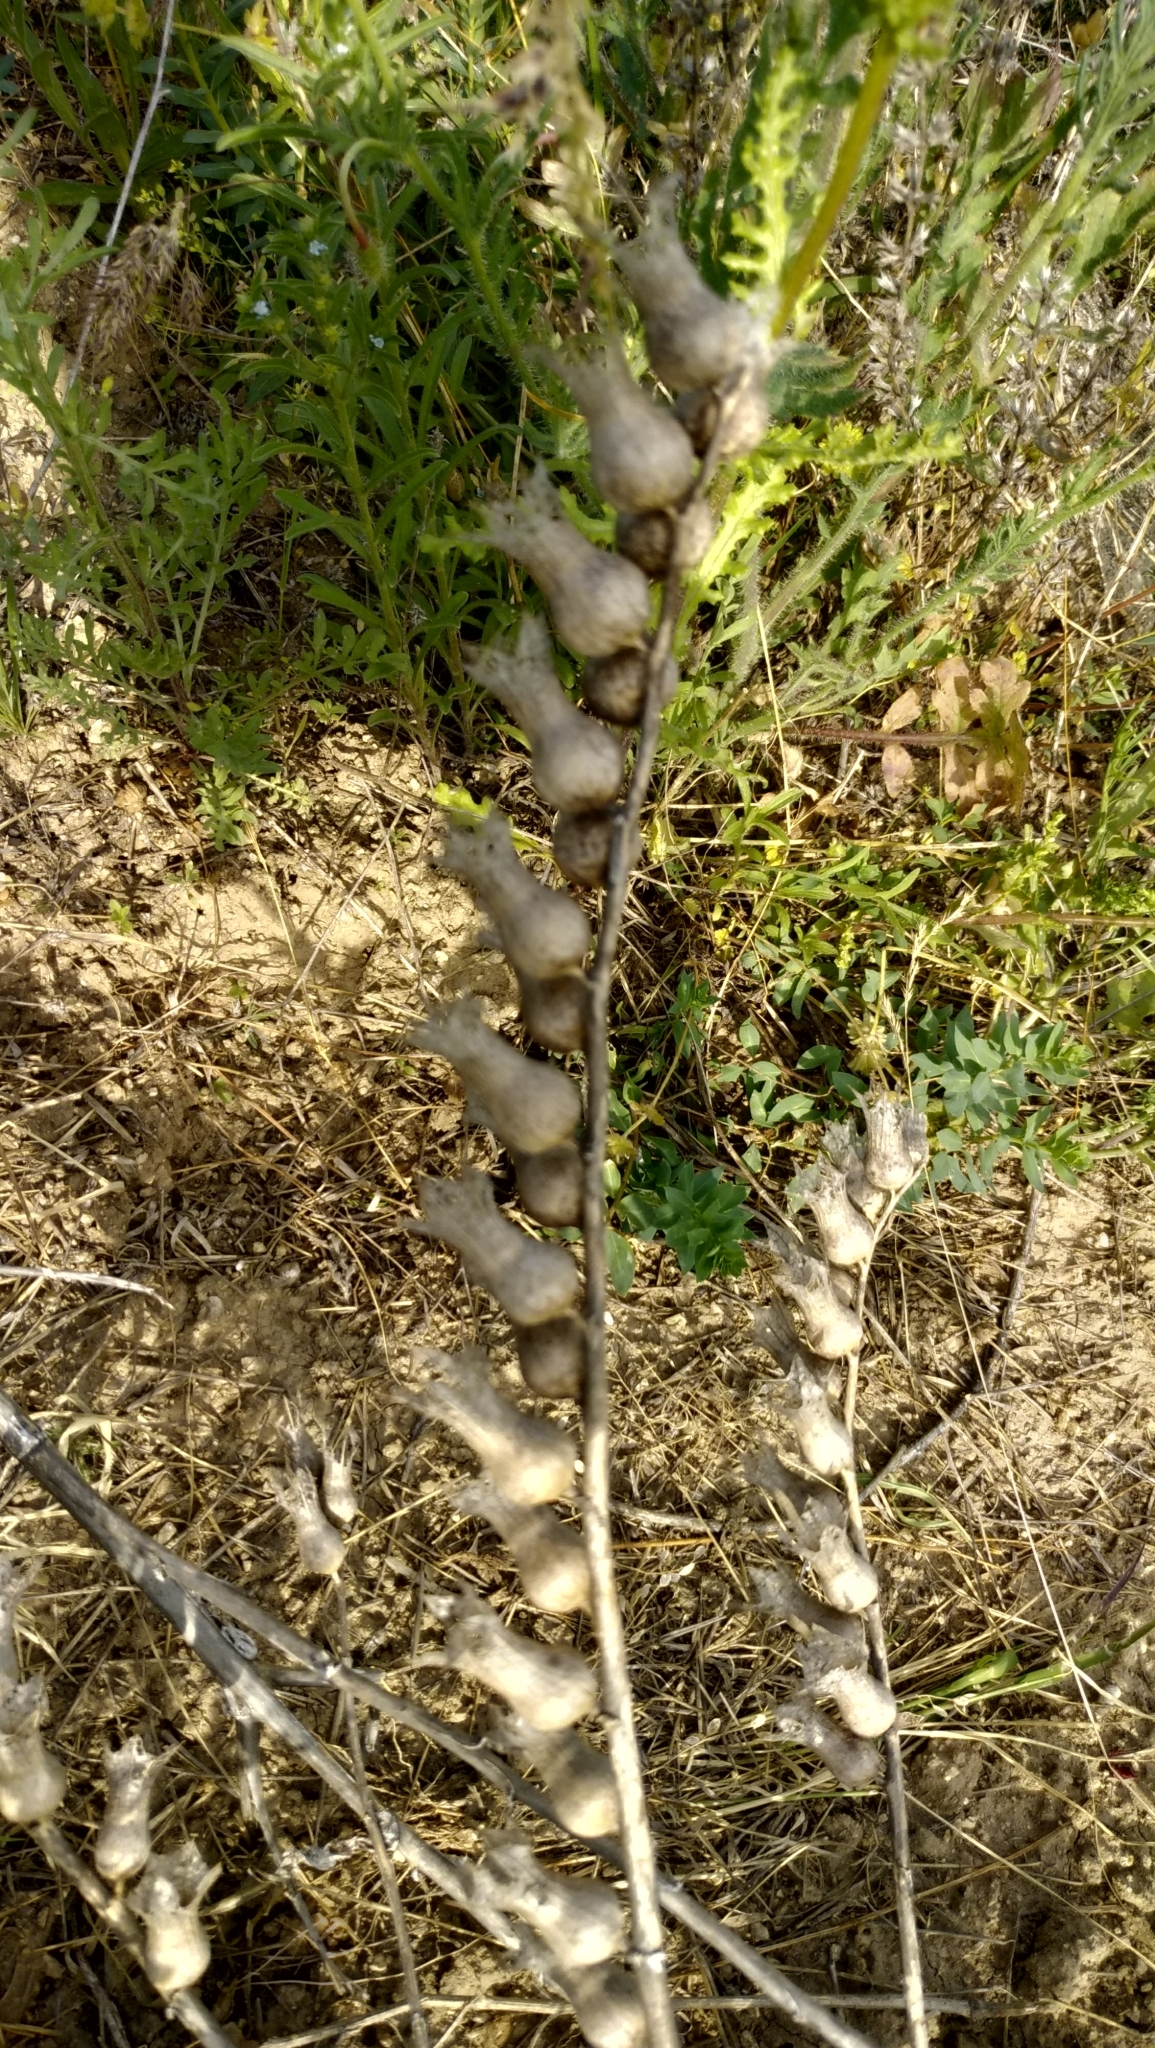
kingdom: Plantae
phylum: Tracheophyta
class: Magnoliopsida
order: Solanales
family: Solanaceae
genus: Hyoscyamus
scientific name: Hyoscyamus niger
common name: Henbane
